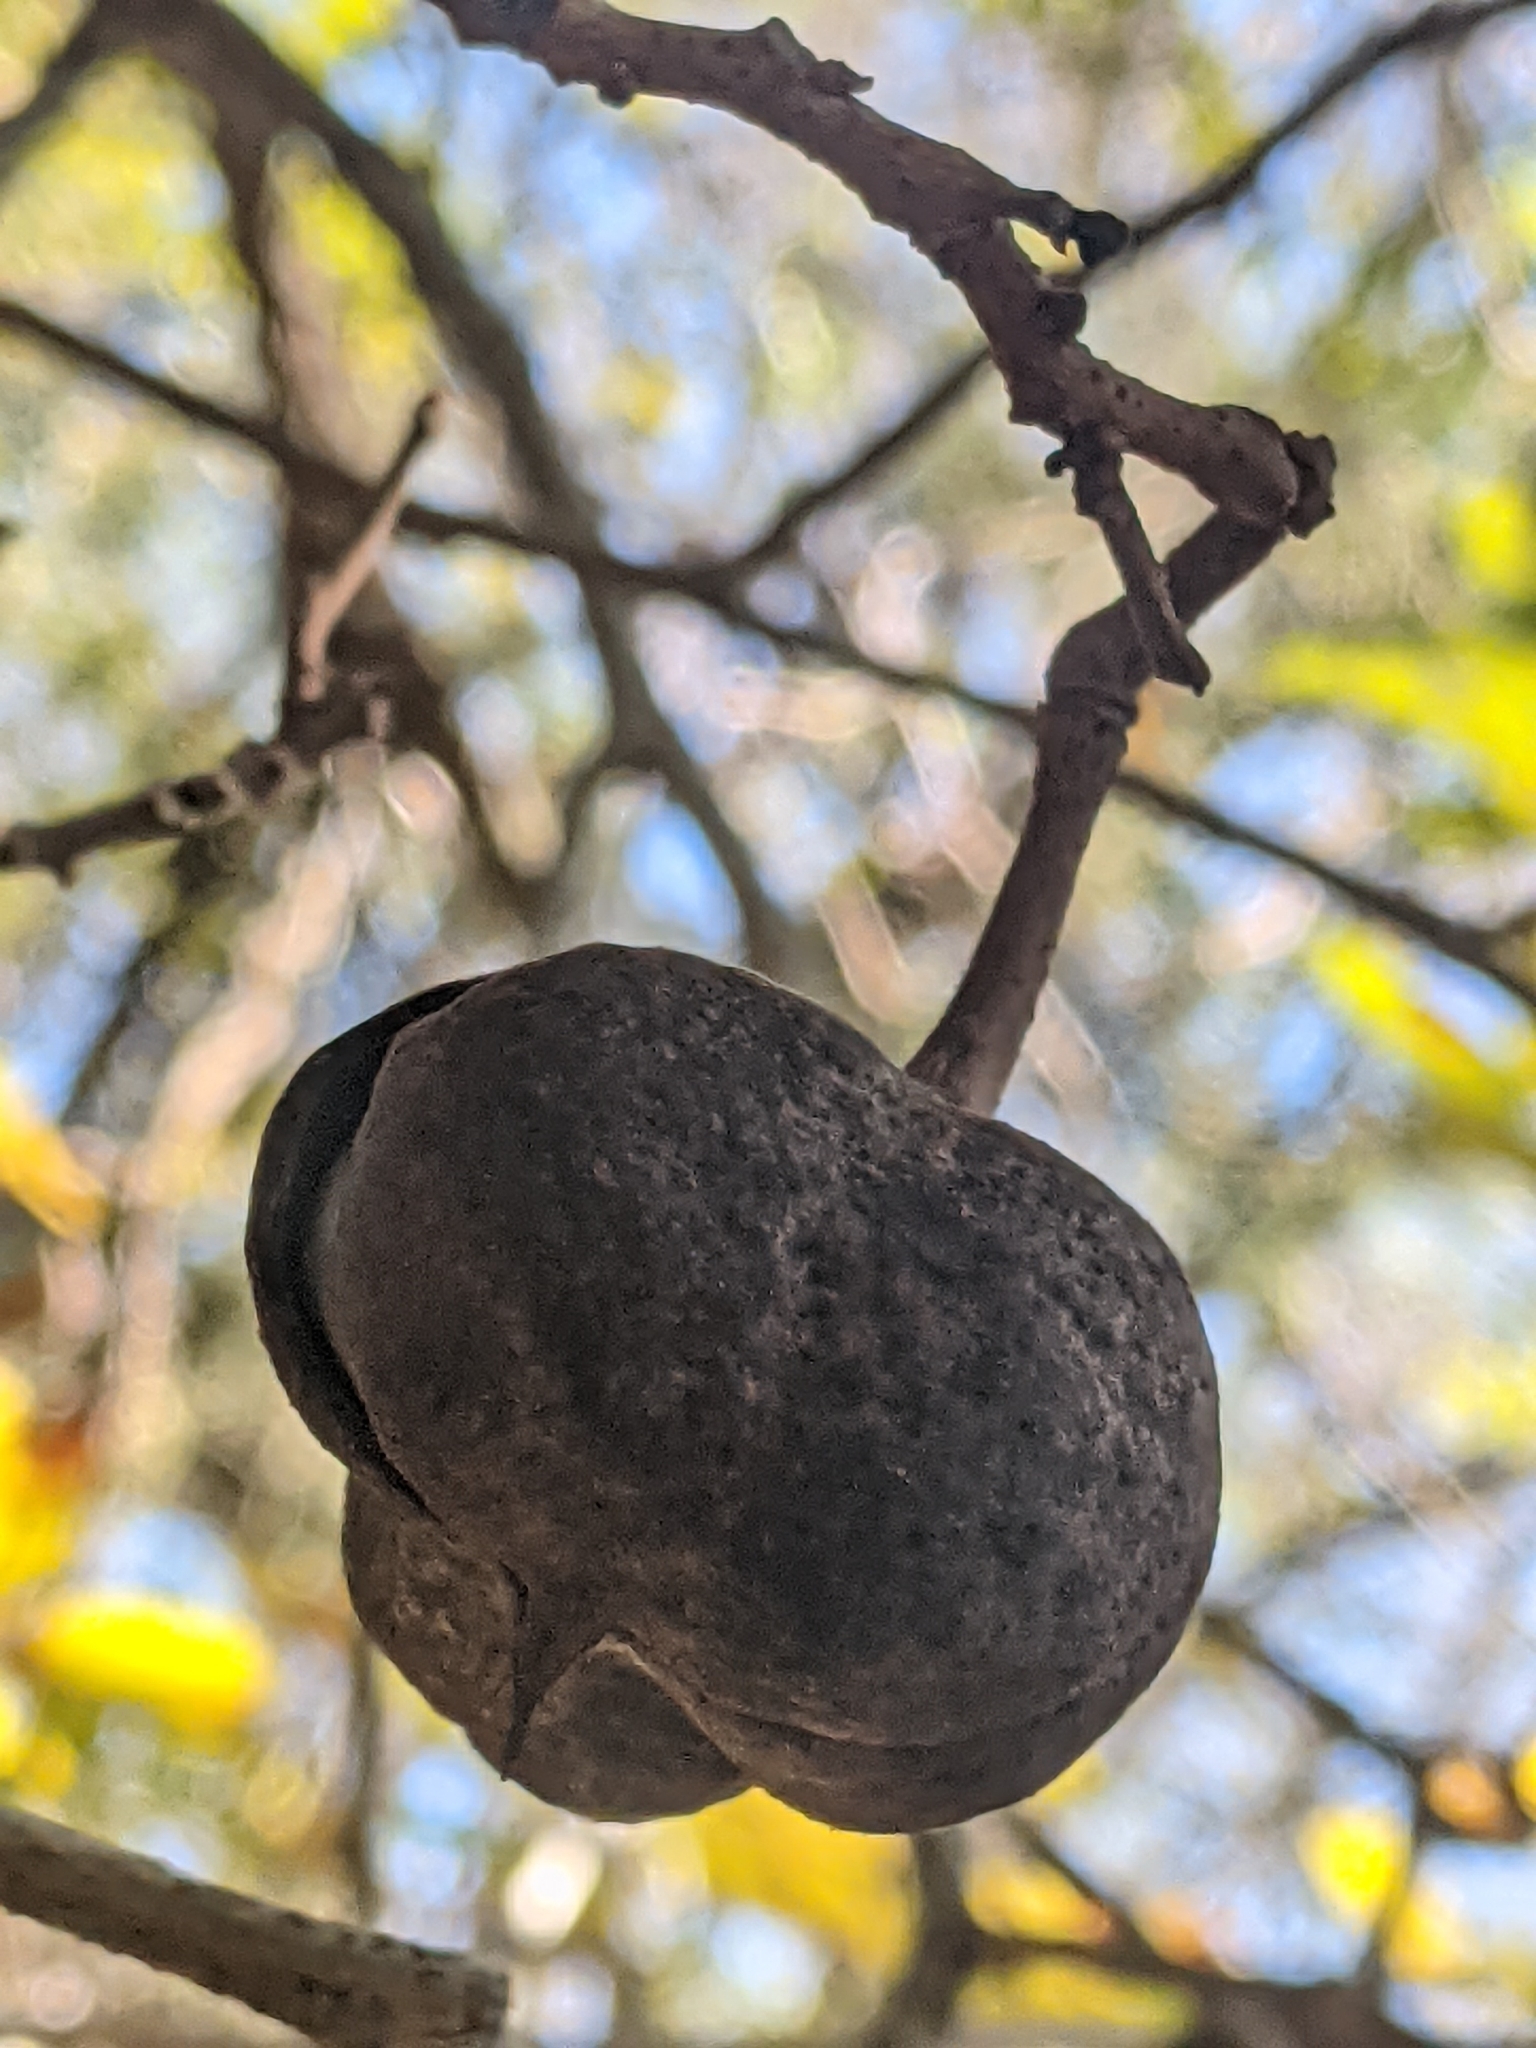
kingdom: Plantae
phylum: Tracheophyta
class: Magnoliopsida
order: Sapindales
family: Sapindaceae
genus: Ungnadia
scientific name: Ungnadia speciosa
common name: Texas-buckeye
